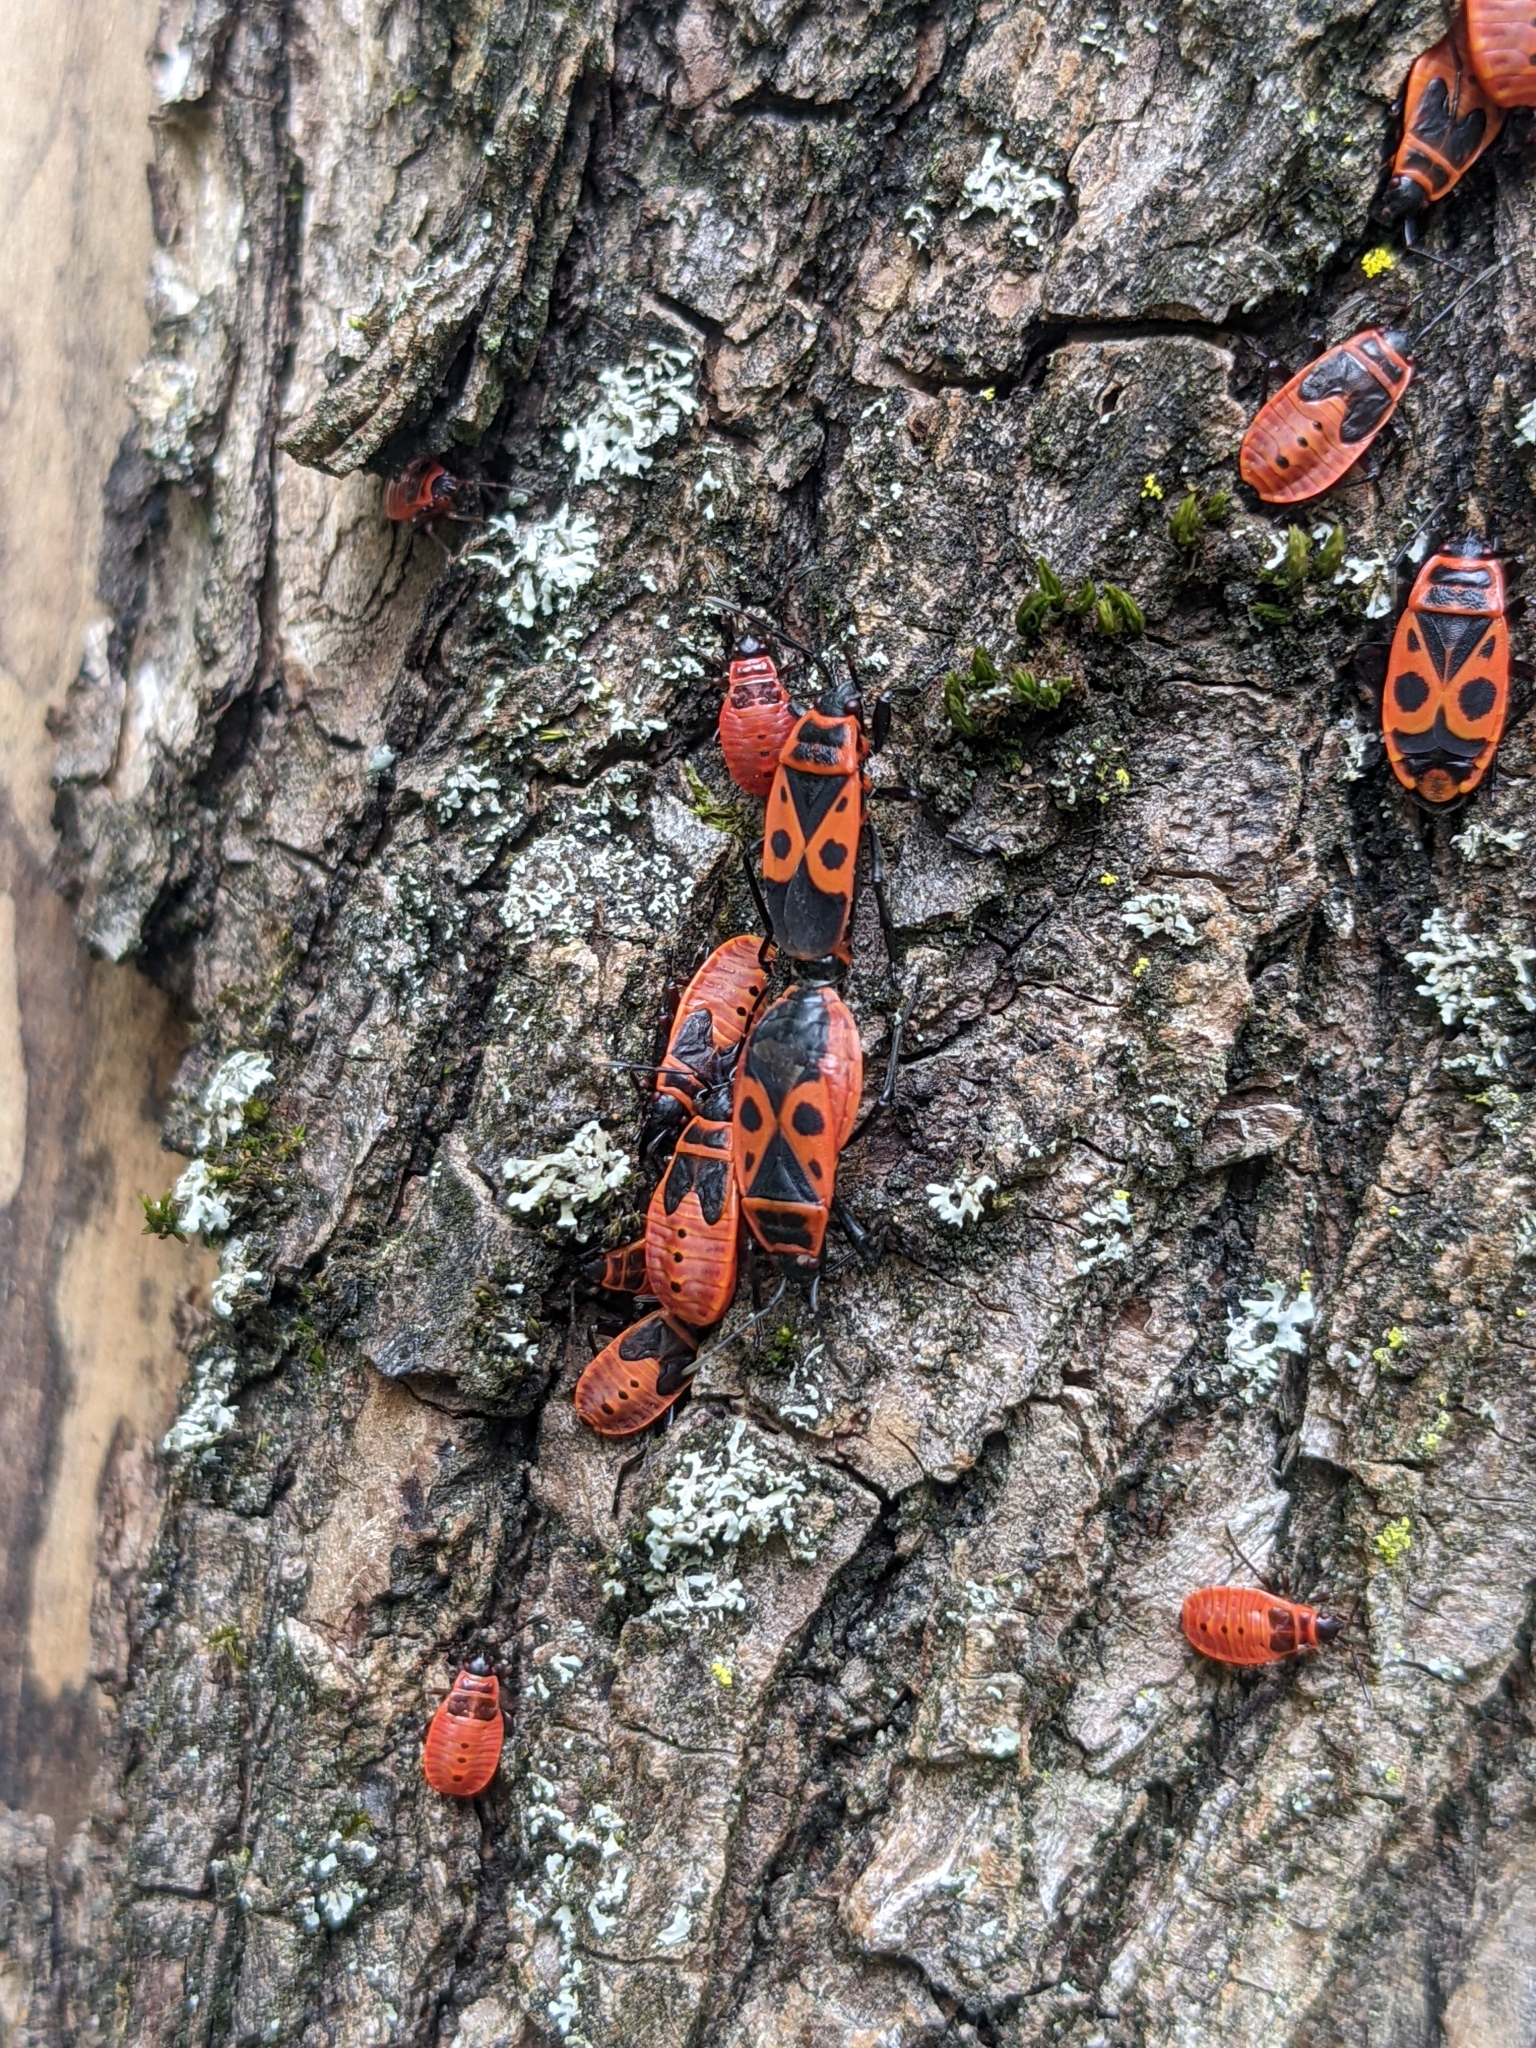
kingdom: Animalia
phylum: Arthropoda
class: Insecta
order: Hemiptera
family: Pyrrhocoridae
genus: Pyrrhocoris
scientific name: Pyrrhocoris apterus
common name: Firebug
